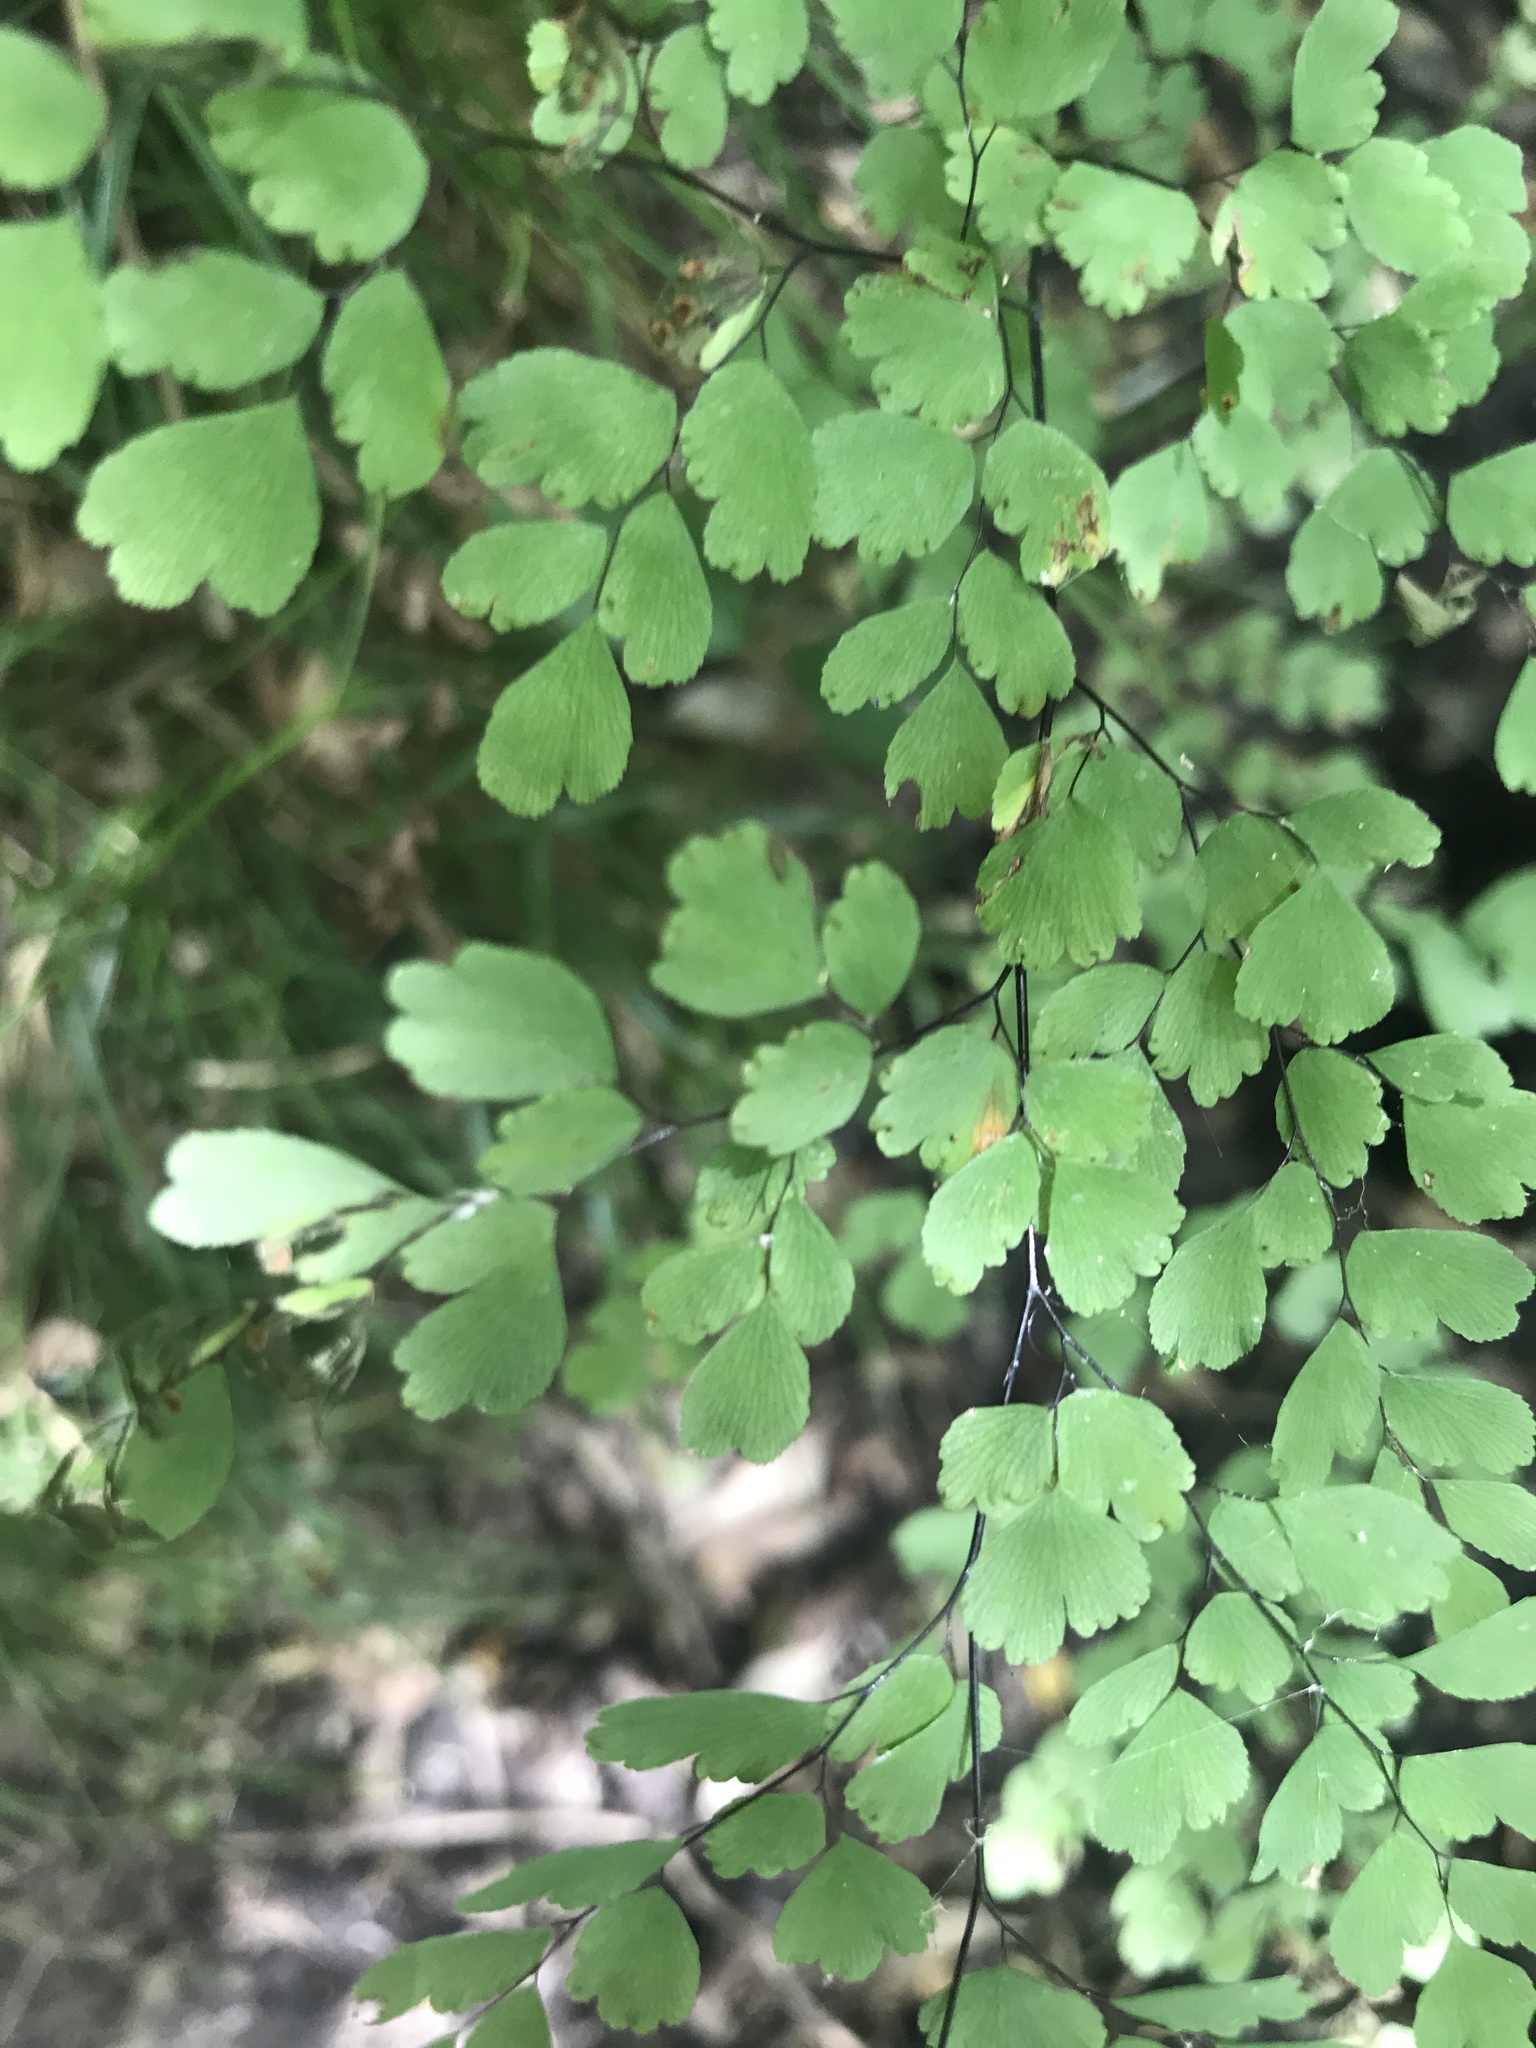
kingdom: Plantae
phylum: Tracheophyta
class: Polypodiopsida
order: Polypodiales
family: Pteridaceae
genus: Adiantum
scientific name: Adiantum raddianum
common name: Delta maidenhair fern
